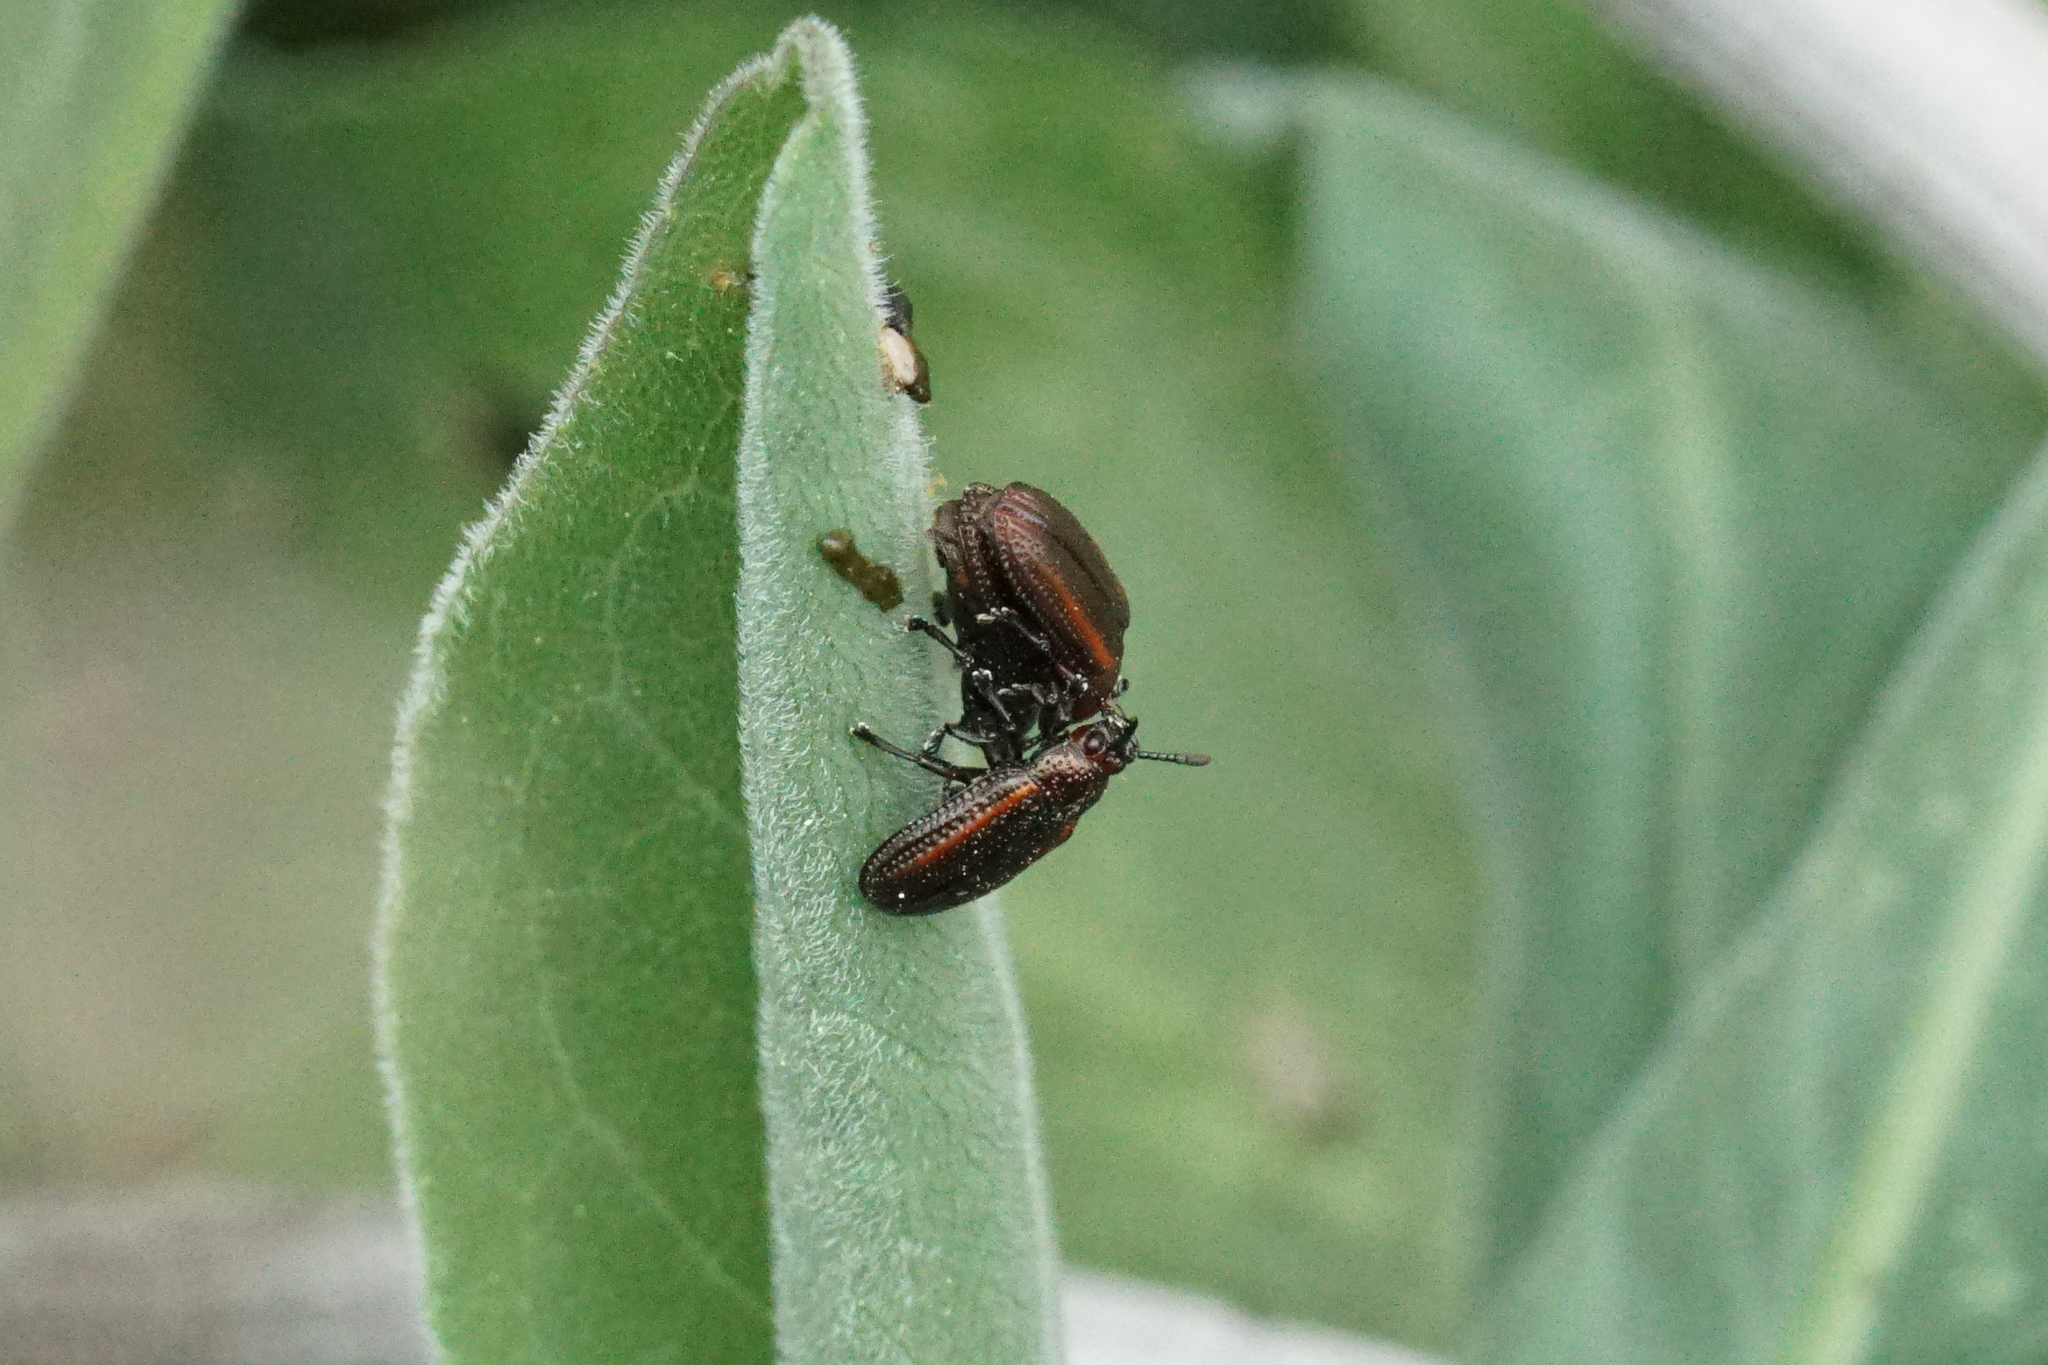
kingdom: Animalia
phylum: Arthropoda
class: Insecta
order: Coleoptera
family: Chrysomelidae
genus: Microrhopala
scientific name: Microrhopala vittata
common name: Goldenrod leaf miner beetle
